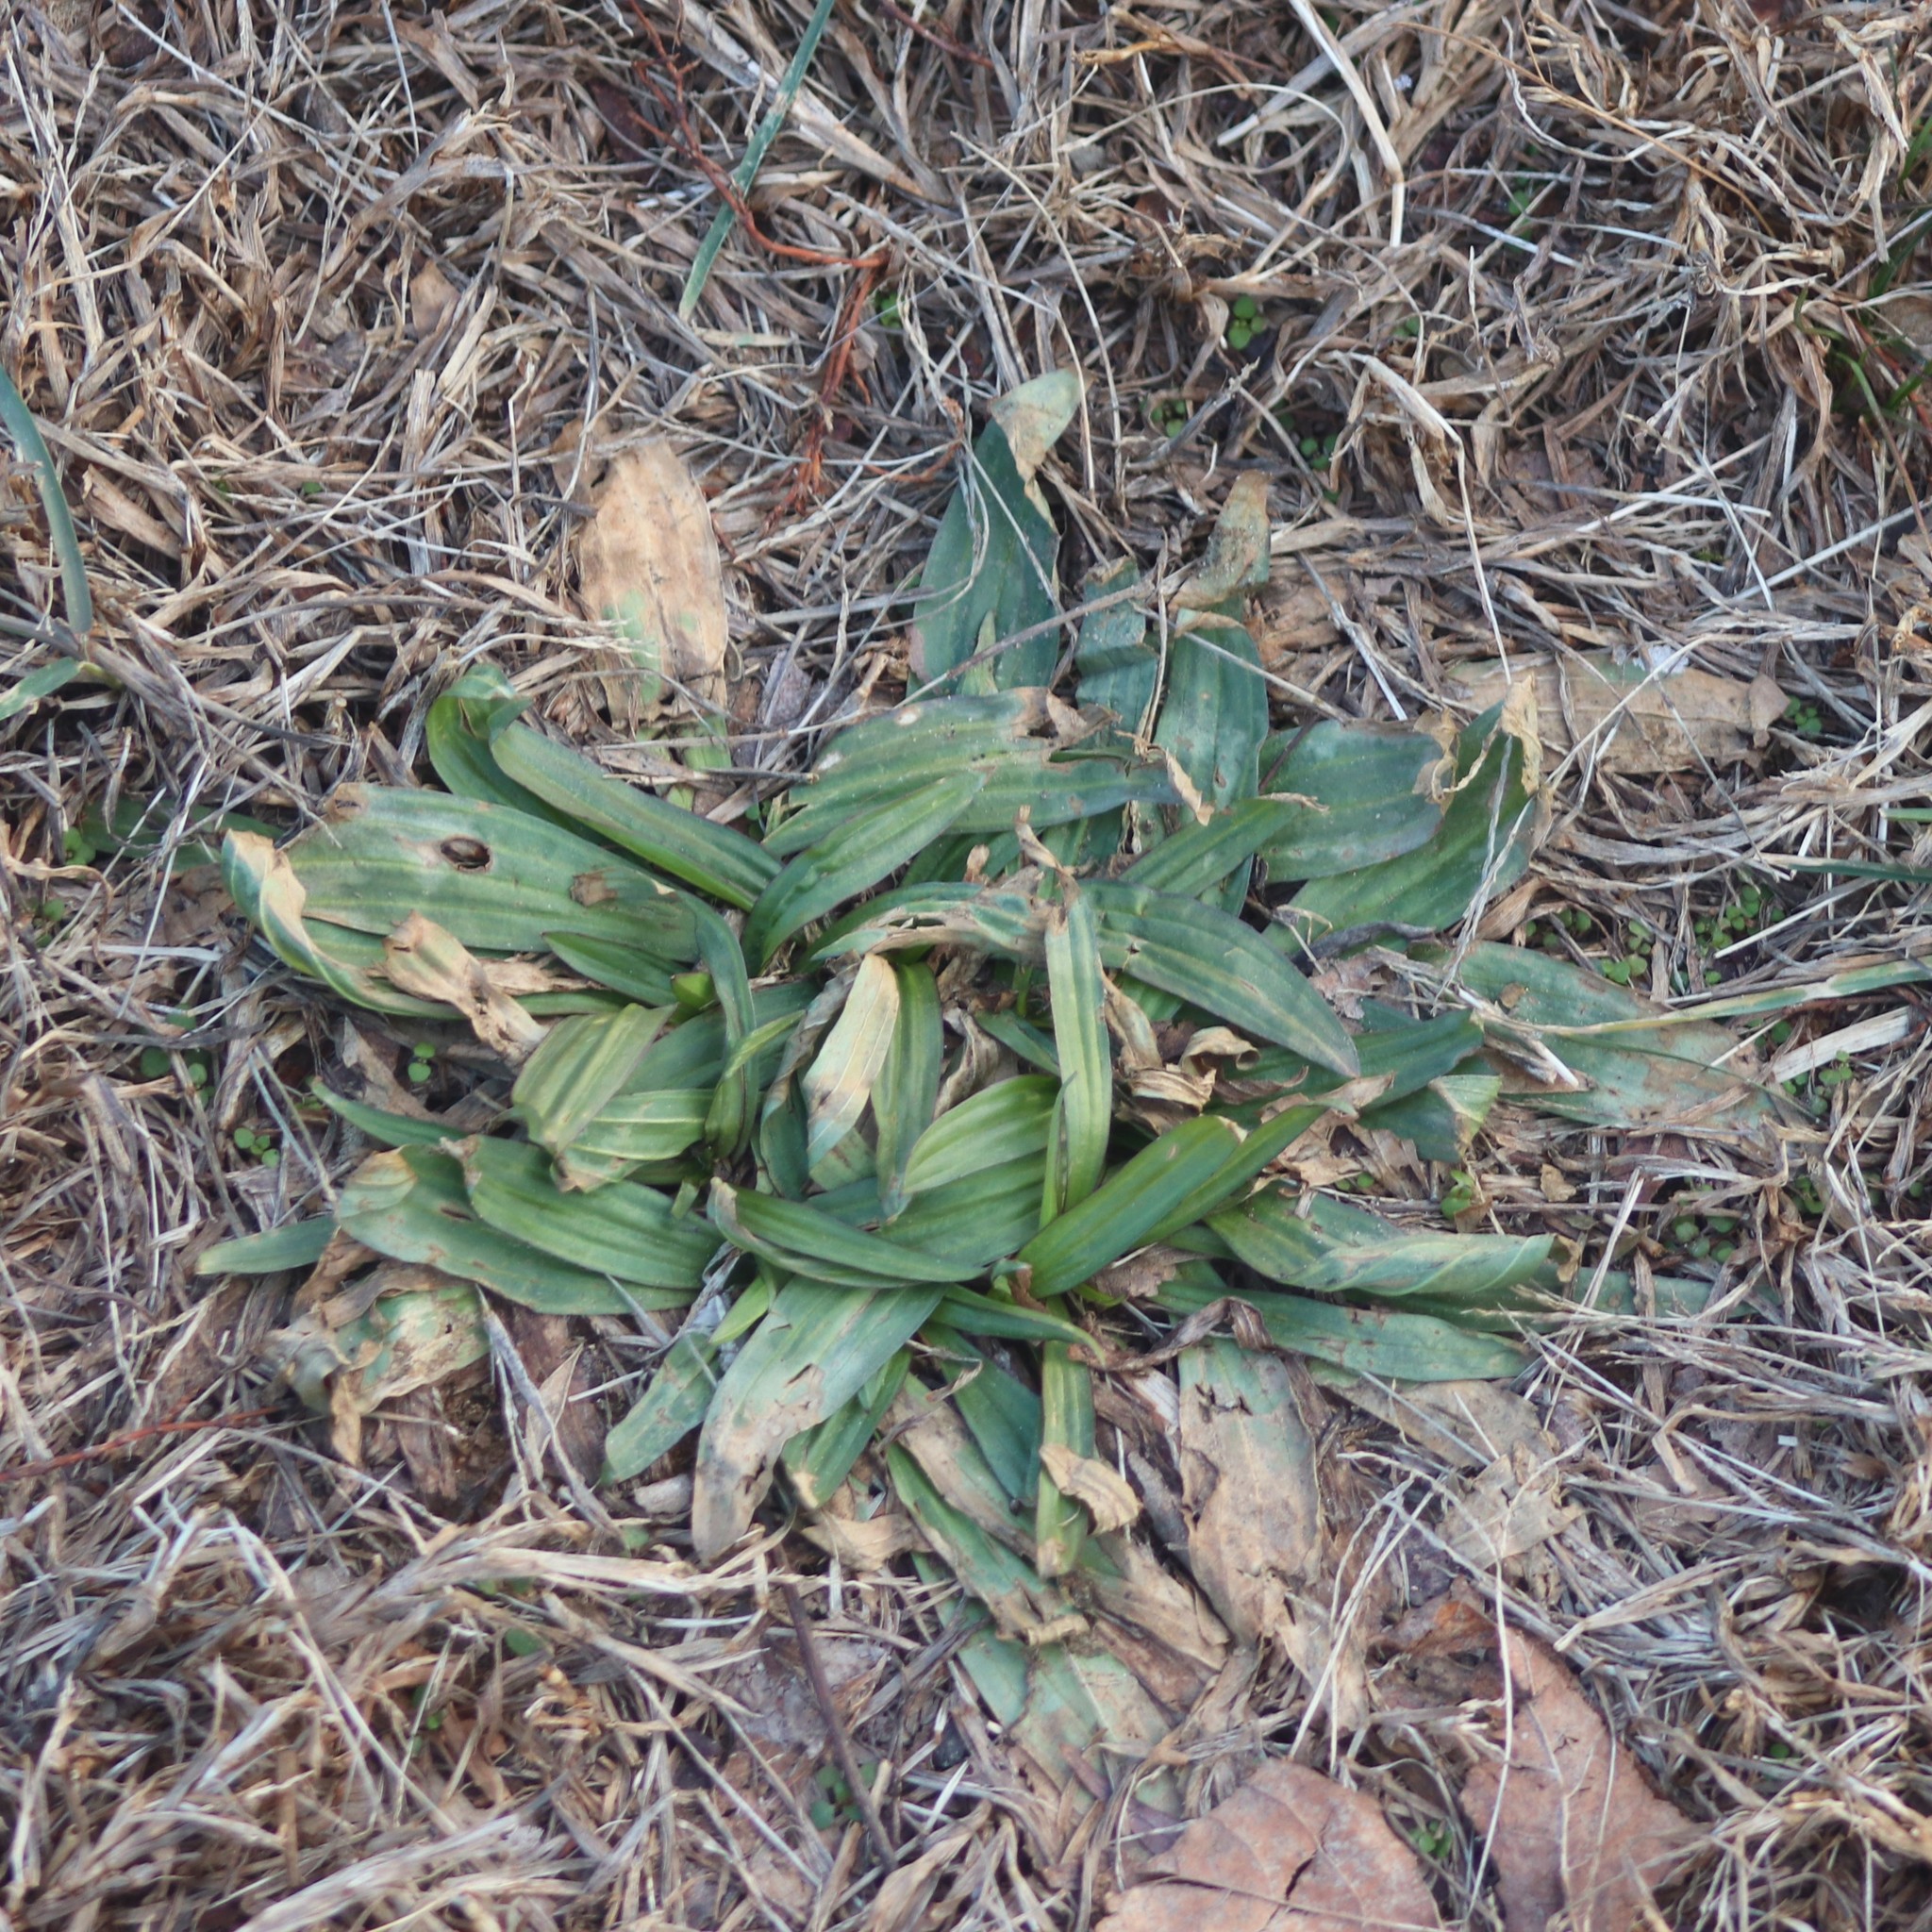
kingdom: Plantae
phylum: Tracheophyta
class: Magnoliopsida
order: Lamiales
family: Plantaginaceae
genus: Plantago
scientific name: Plantago lanceolata
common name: Ribwort plantain
